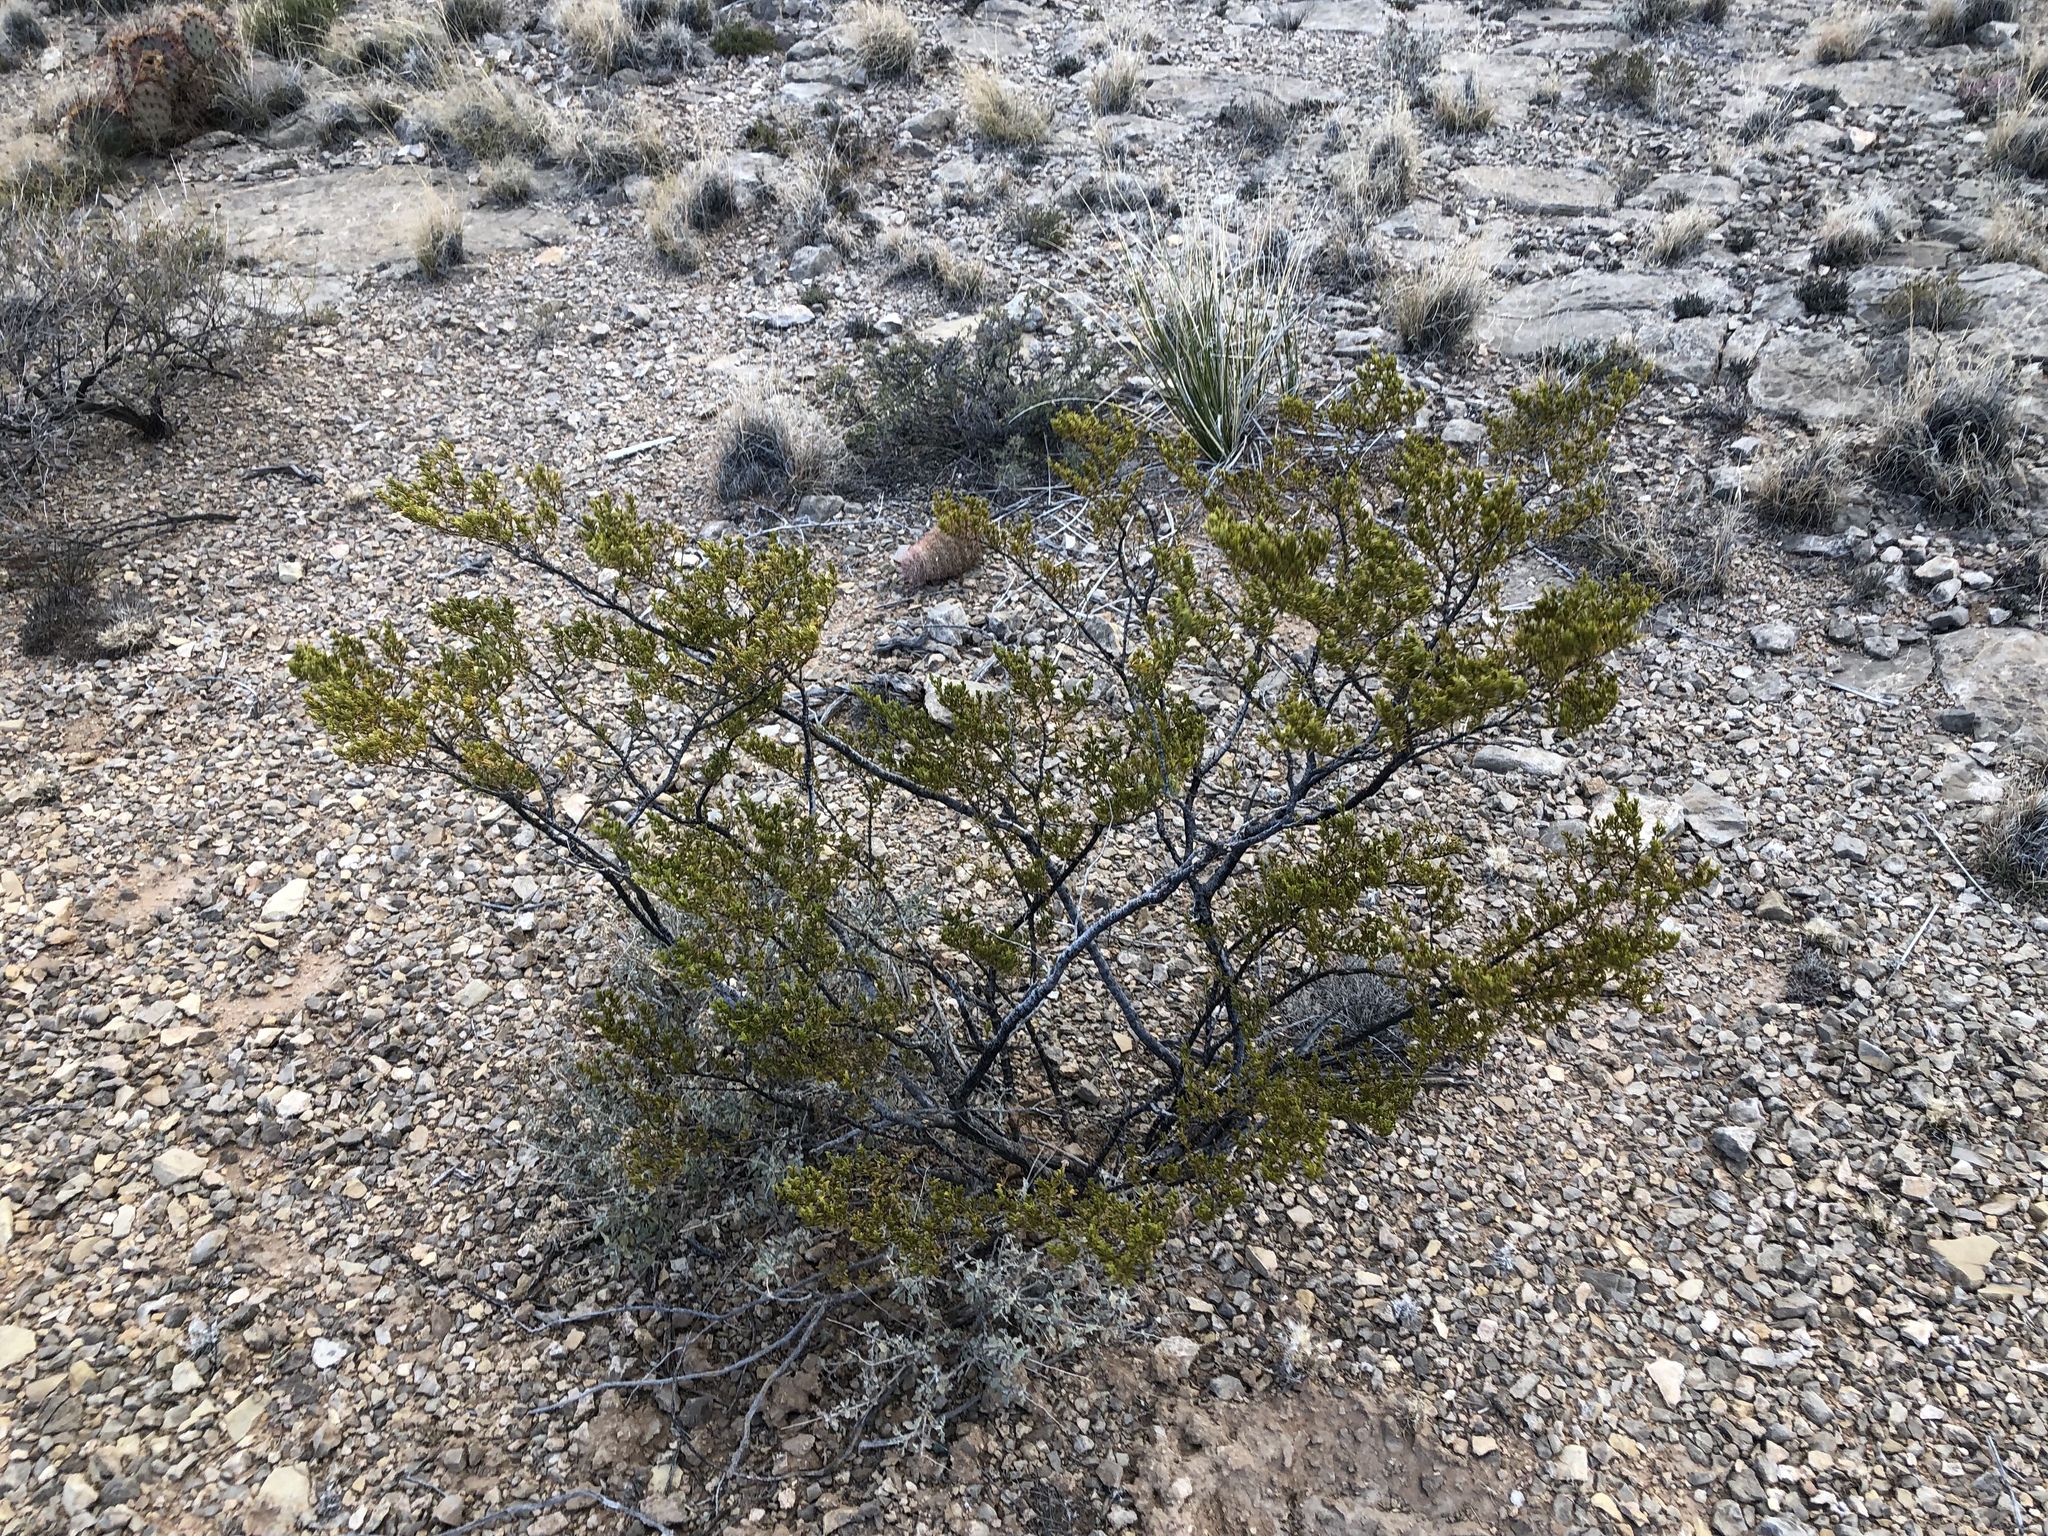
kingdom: Plantae
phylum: Tracheophyta
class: Magnoliopsida
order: Zygophyllales
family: Zygophyllaceae
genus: Larrea
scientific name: Larrea tridentata
